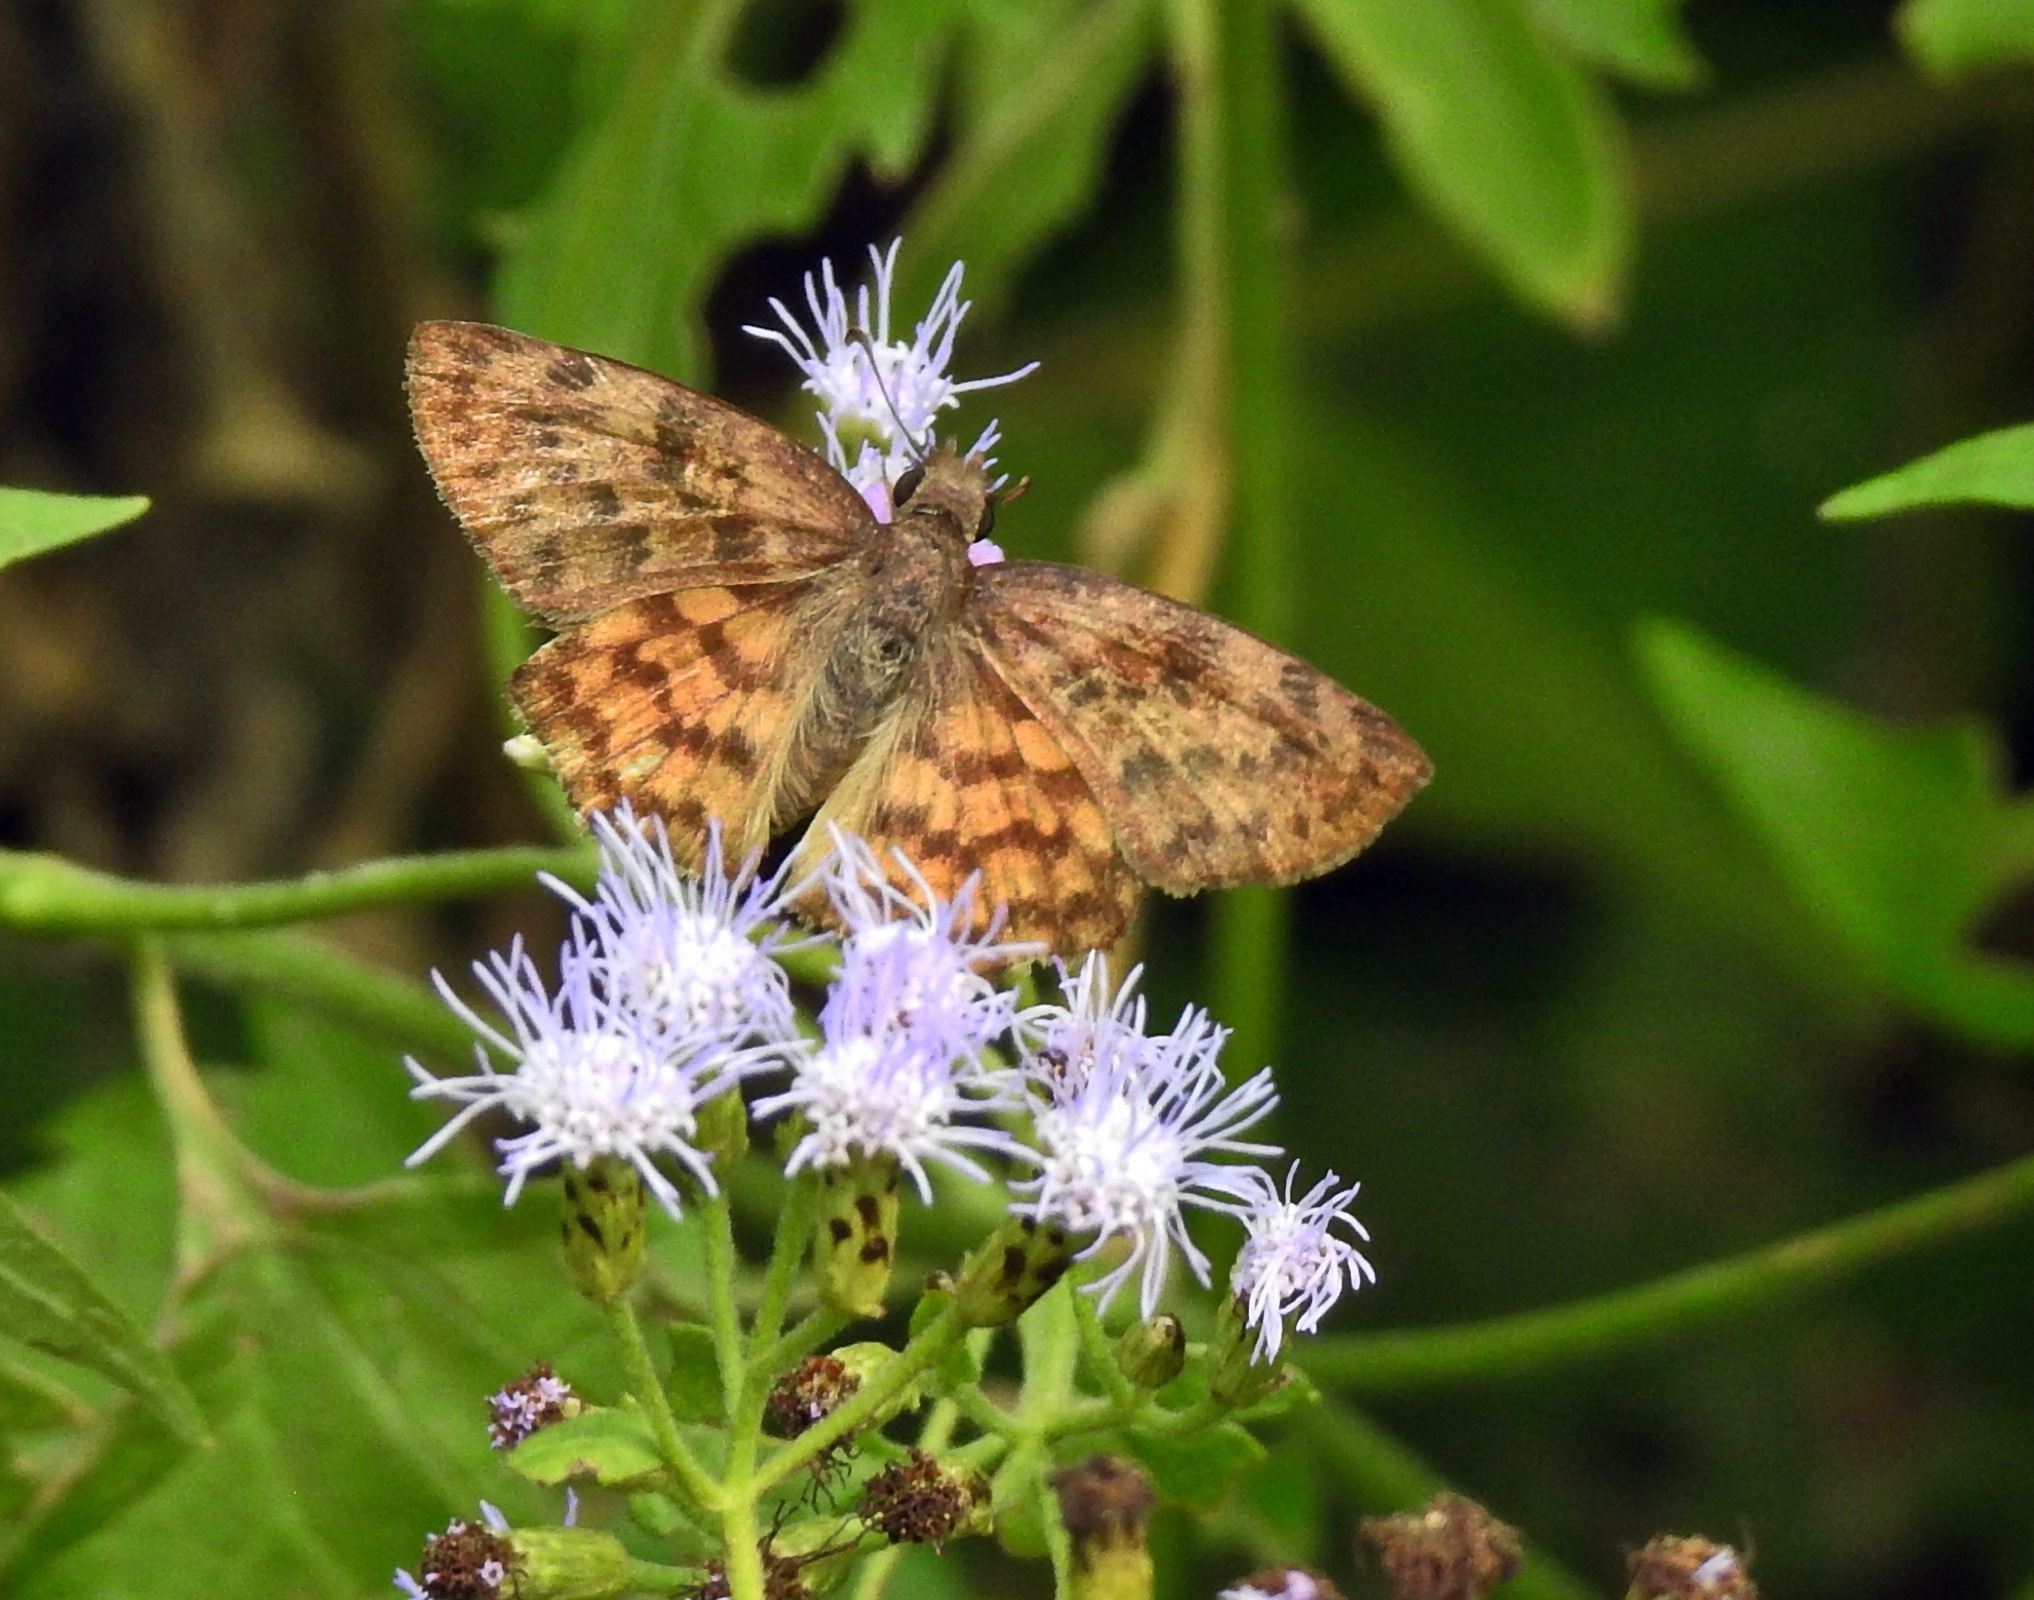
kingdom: Animalia
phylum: Arthropoda
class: Insecta
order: Lepidoptera
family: Hesperiidae
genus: Timochares
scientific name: Timochares ruptifasciata
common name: Brown-banded skipper
